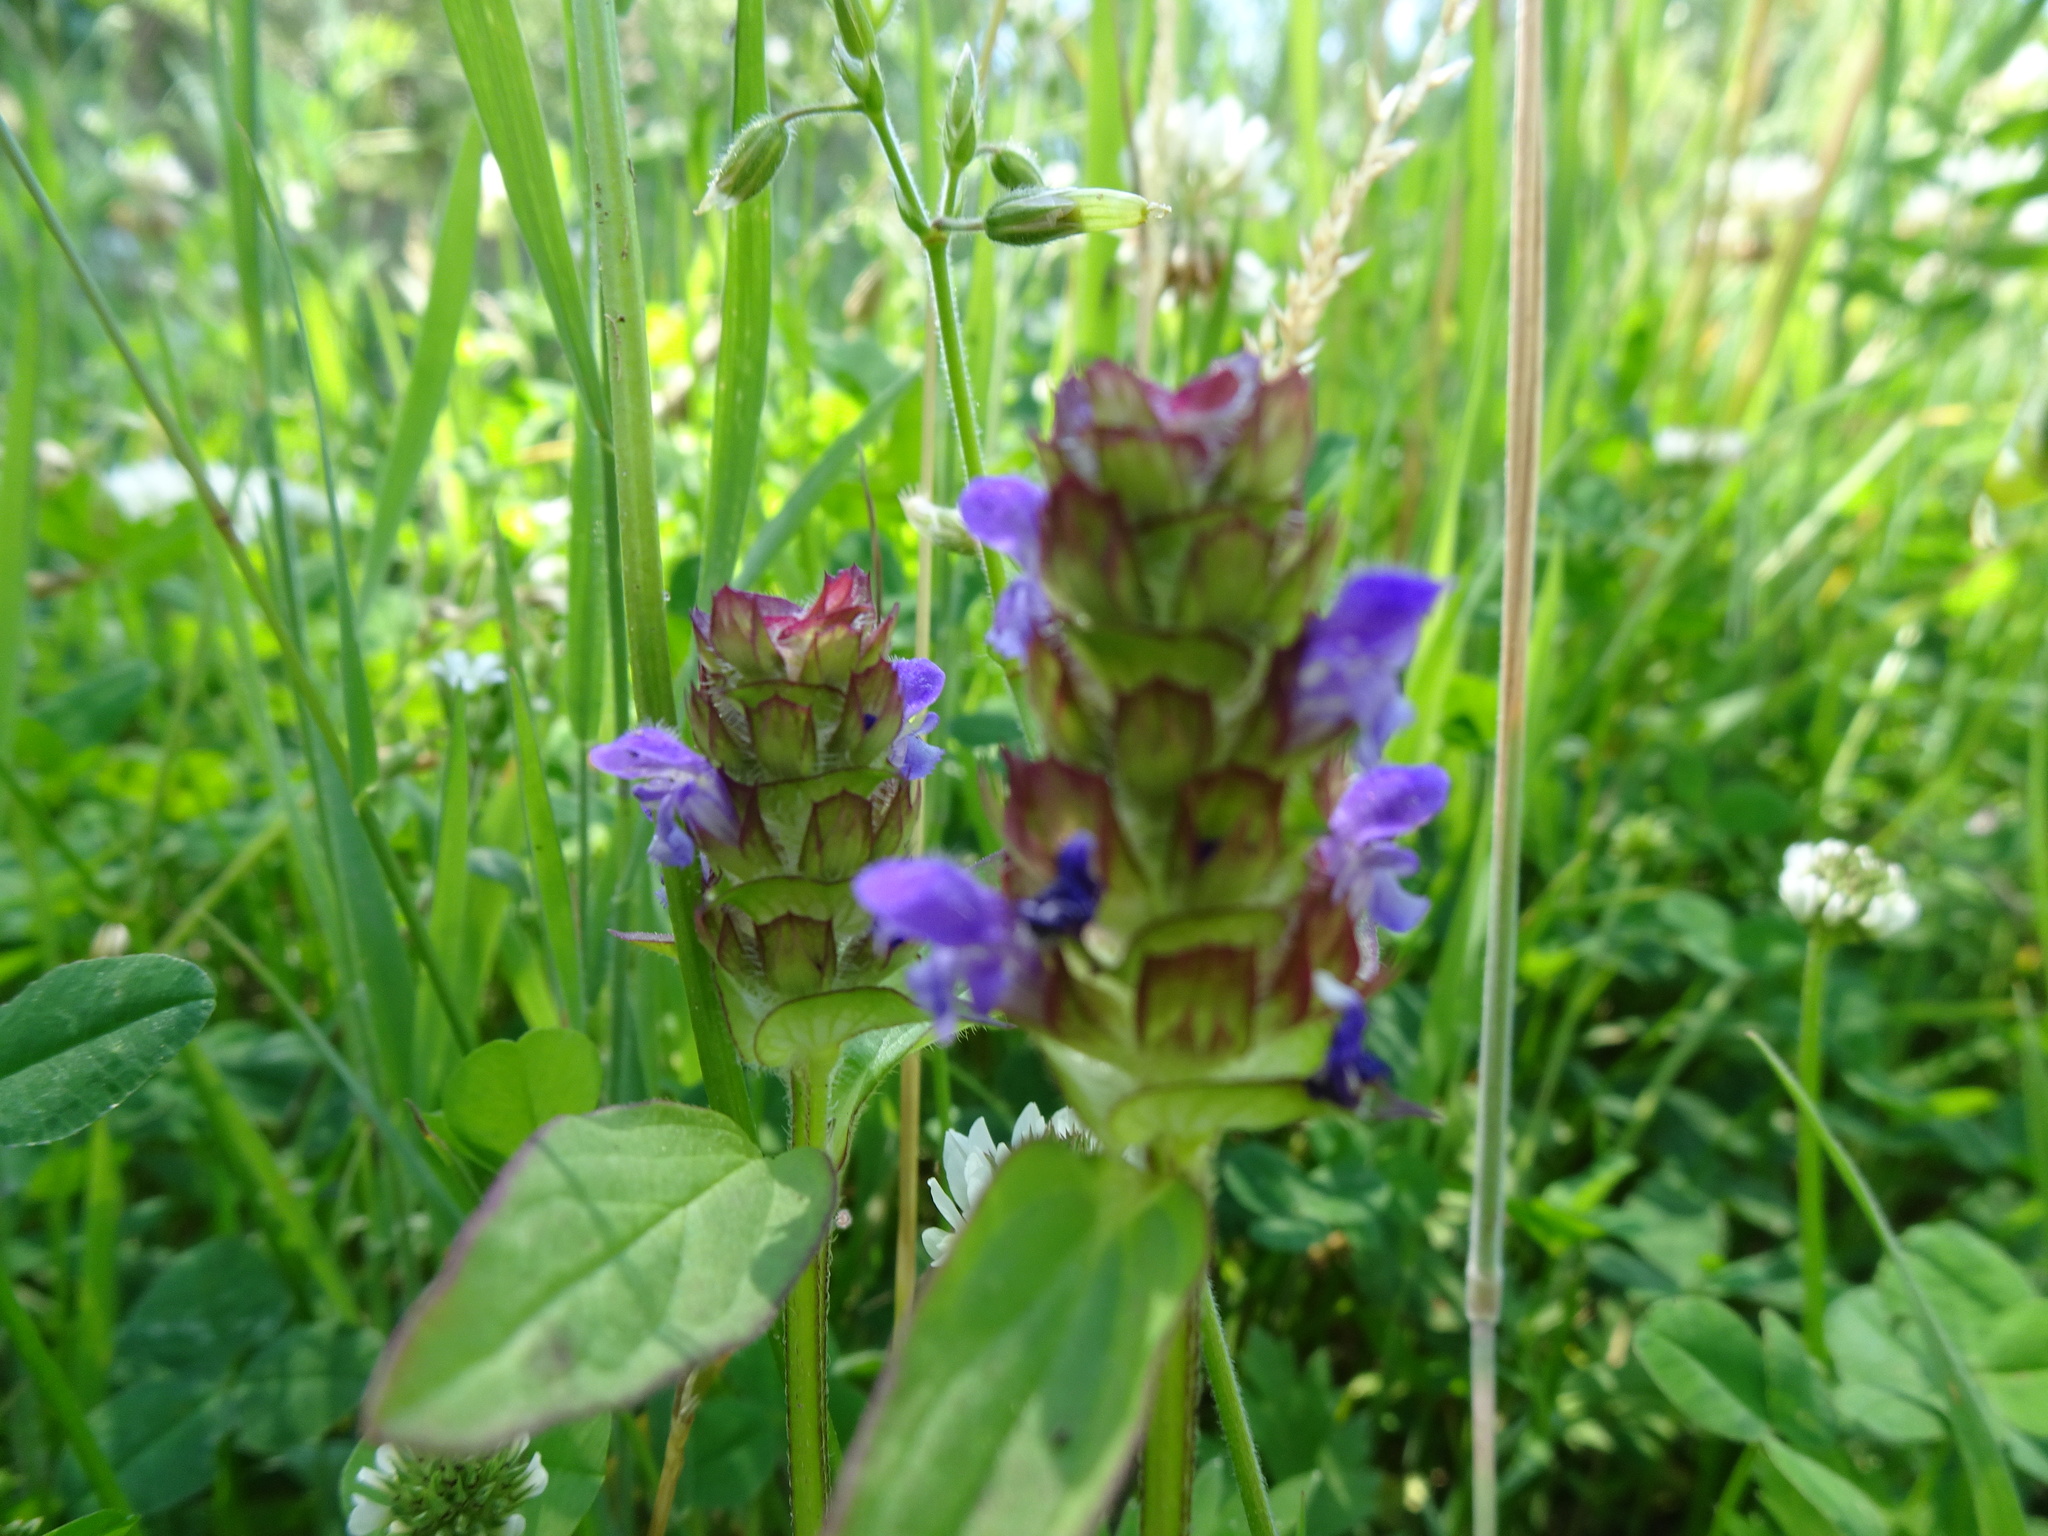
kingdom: Plantae
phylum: Tracheophyta
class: Magnoliopsida
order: Lamiales
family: Lamiaceae
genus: Prunella
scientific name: Prunella vulgaris
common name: Heal-all
